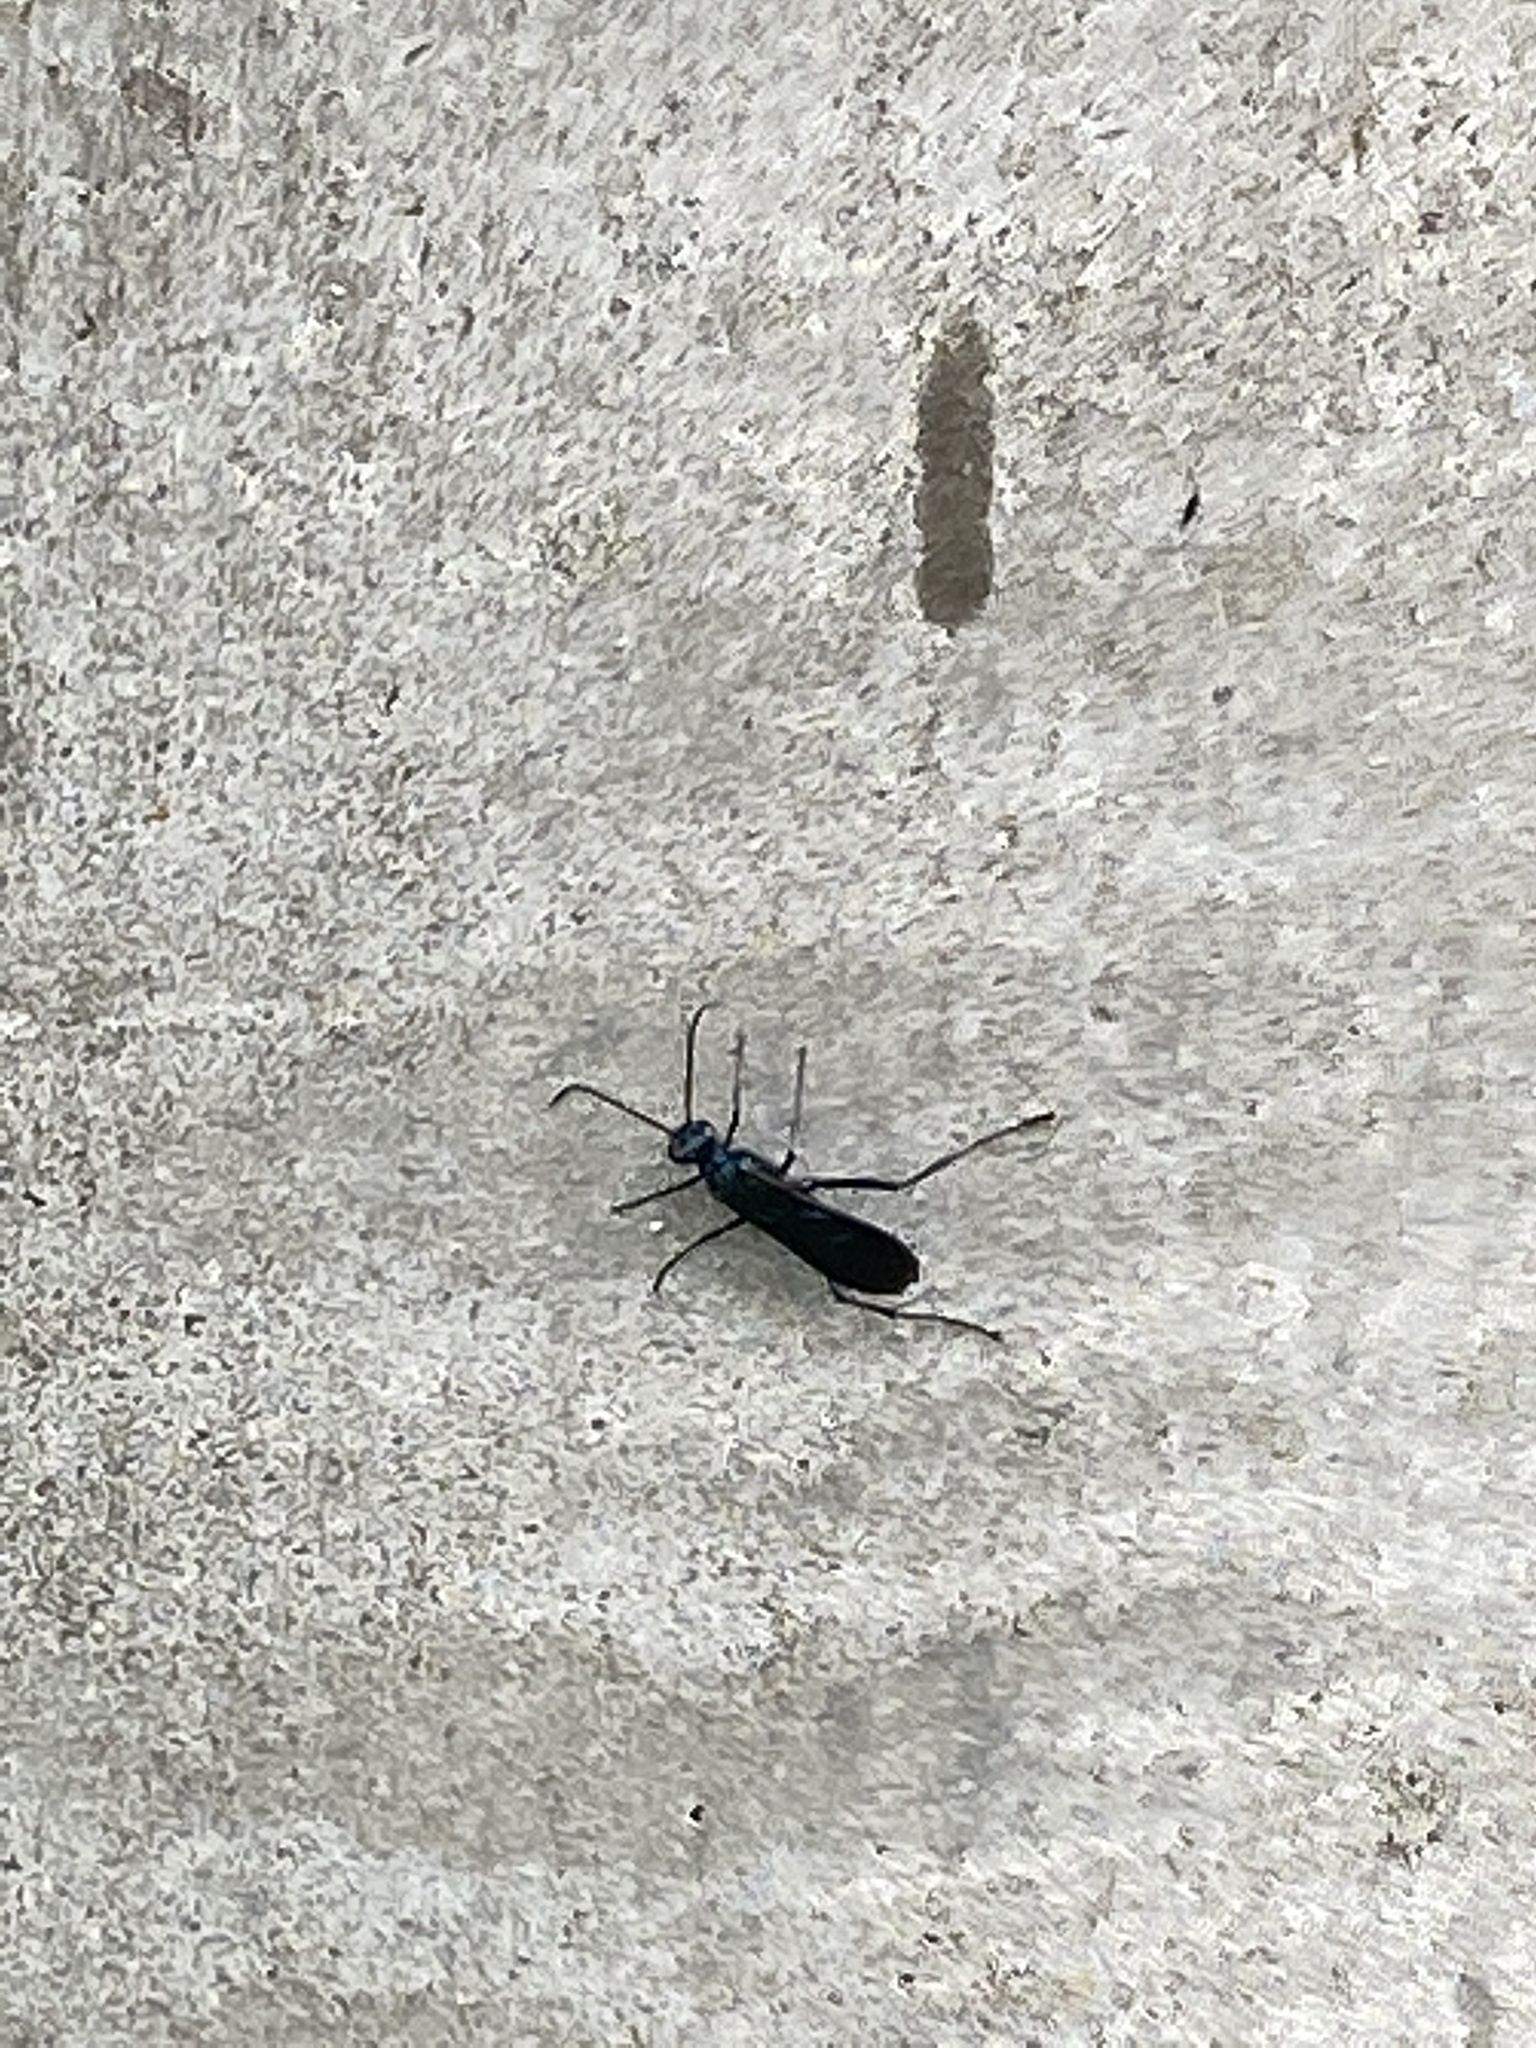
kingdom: Animalia
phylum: Arthropoda
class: Insecta
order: Hymenoptera
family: Sphecidae
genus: Chalybion
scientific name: Chalybion californicum
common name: Mud dauber
